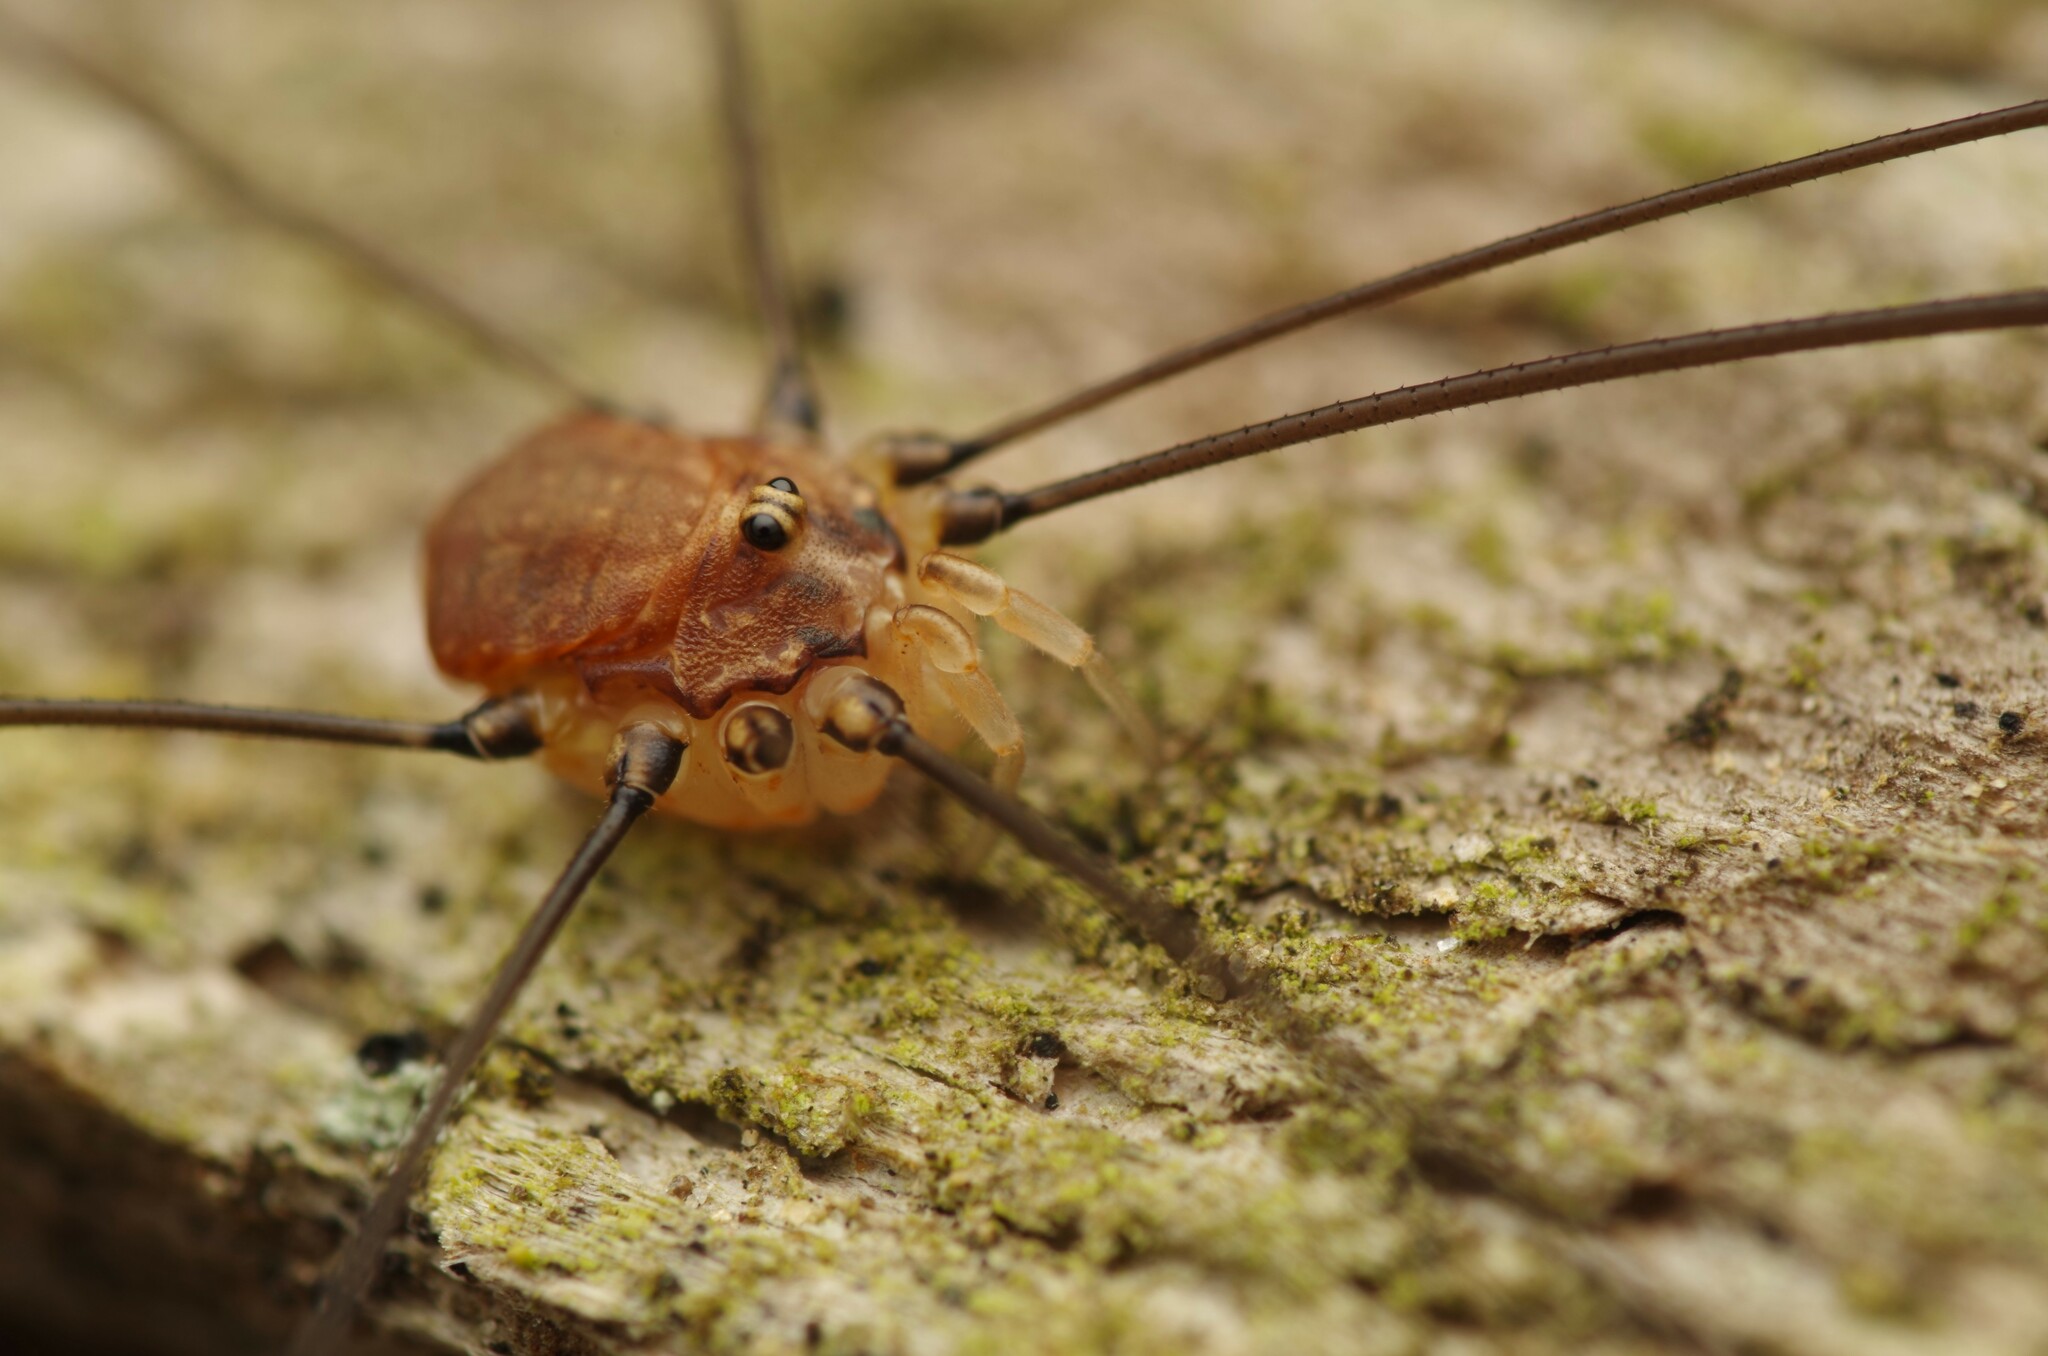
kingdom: Animalia
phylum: Arthropoda
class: Arachnida
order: Opiliones
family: Sclerosomatidae
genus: Leiobunum
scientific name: Leiobunum blackwalli
